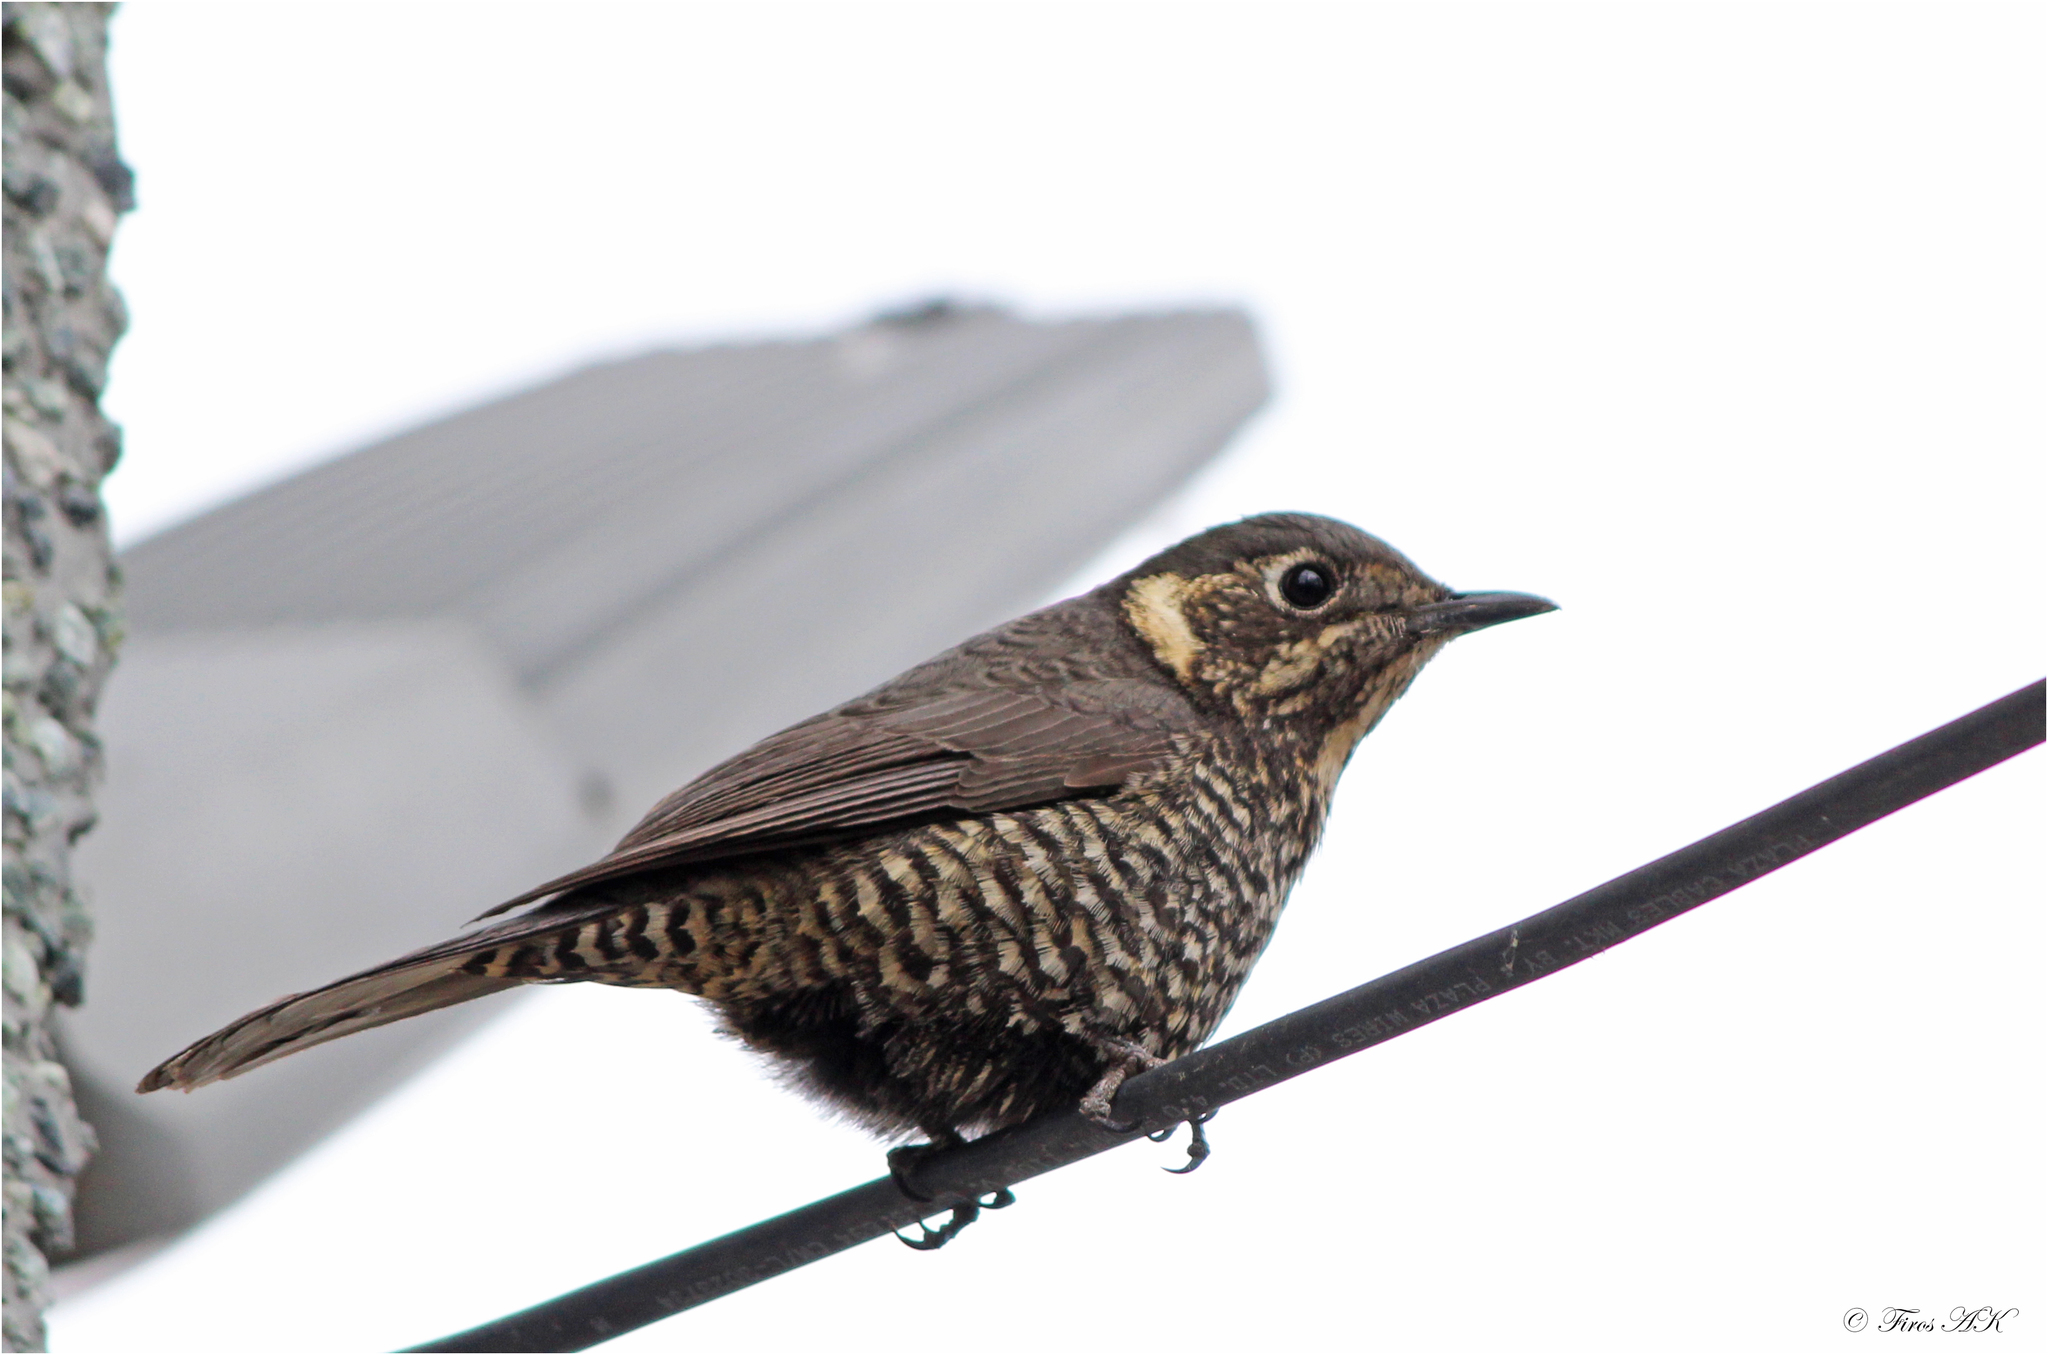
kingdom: Animalia
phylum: Chordata
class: Aves
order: Passeriformes
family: Muscicapidae
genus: Monticola
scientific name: Monticola rufiventris
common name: Chestnut-bellied rock thrush
